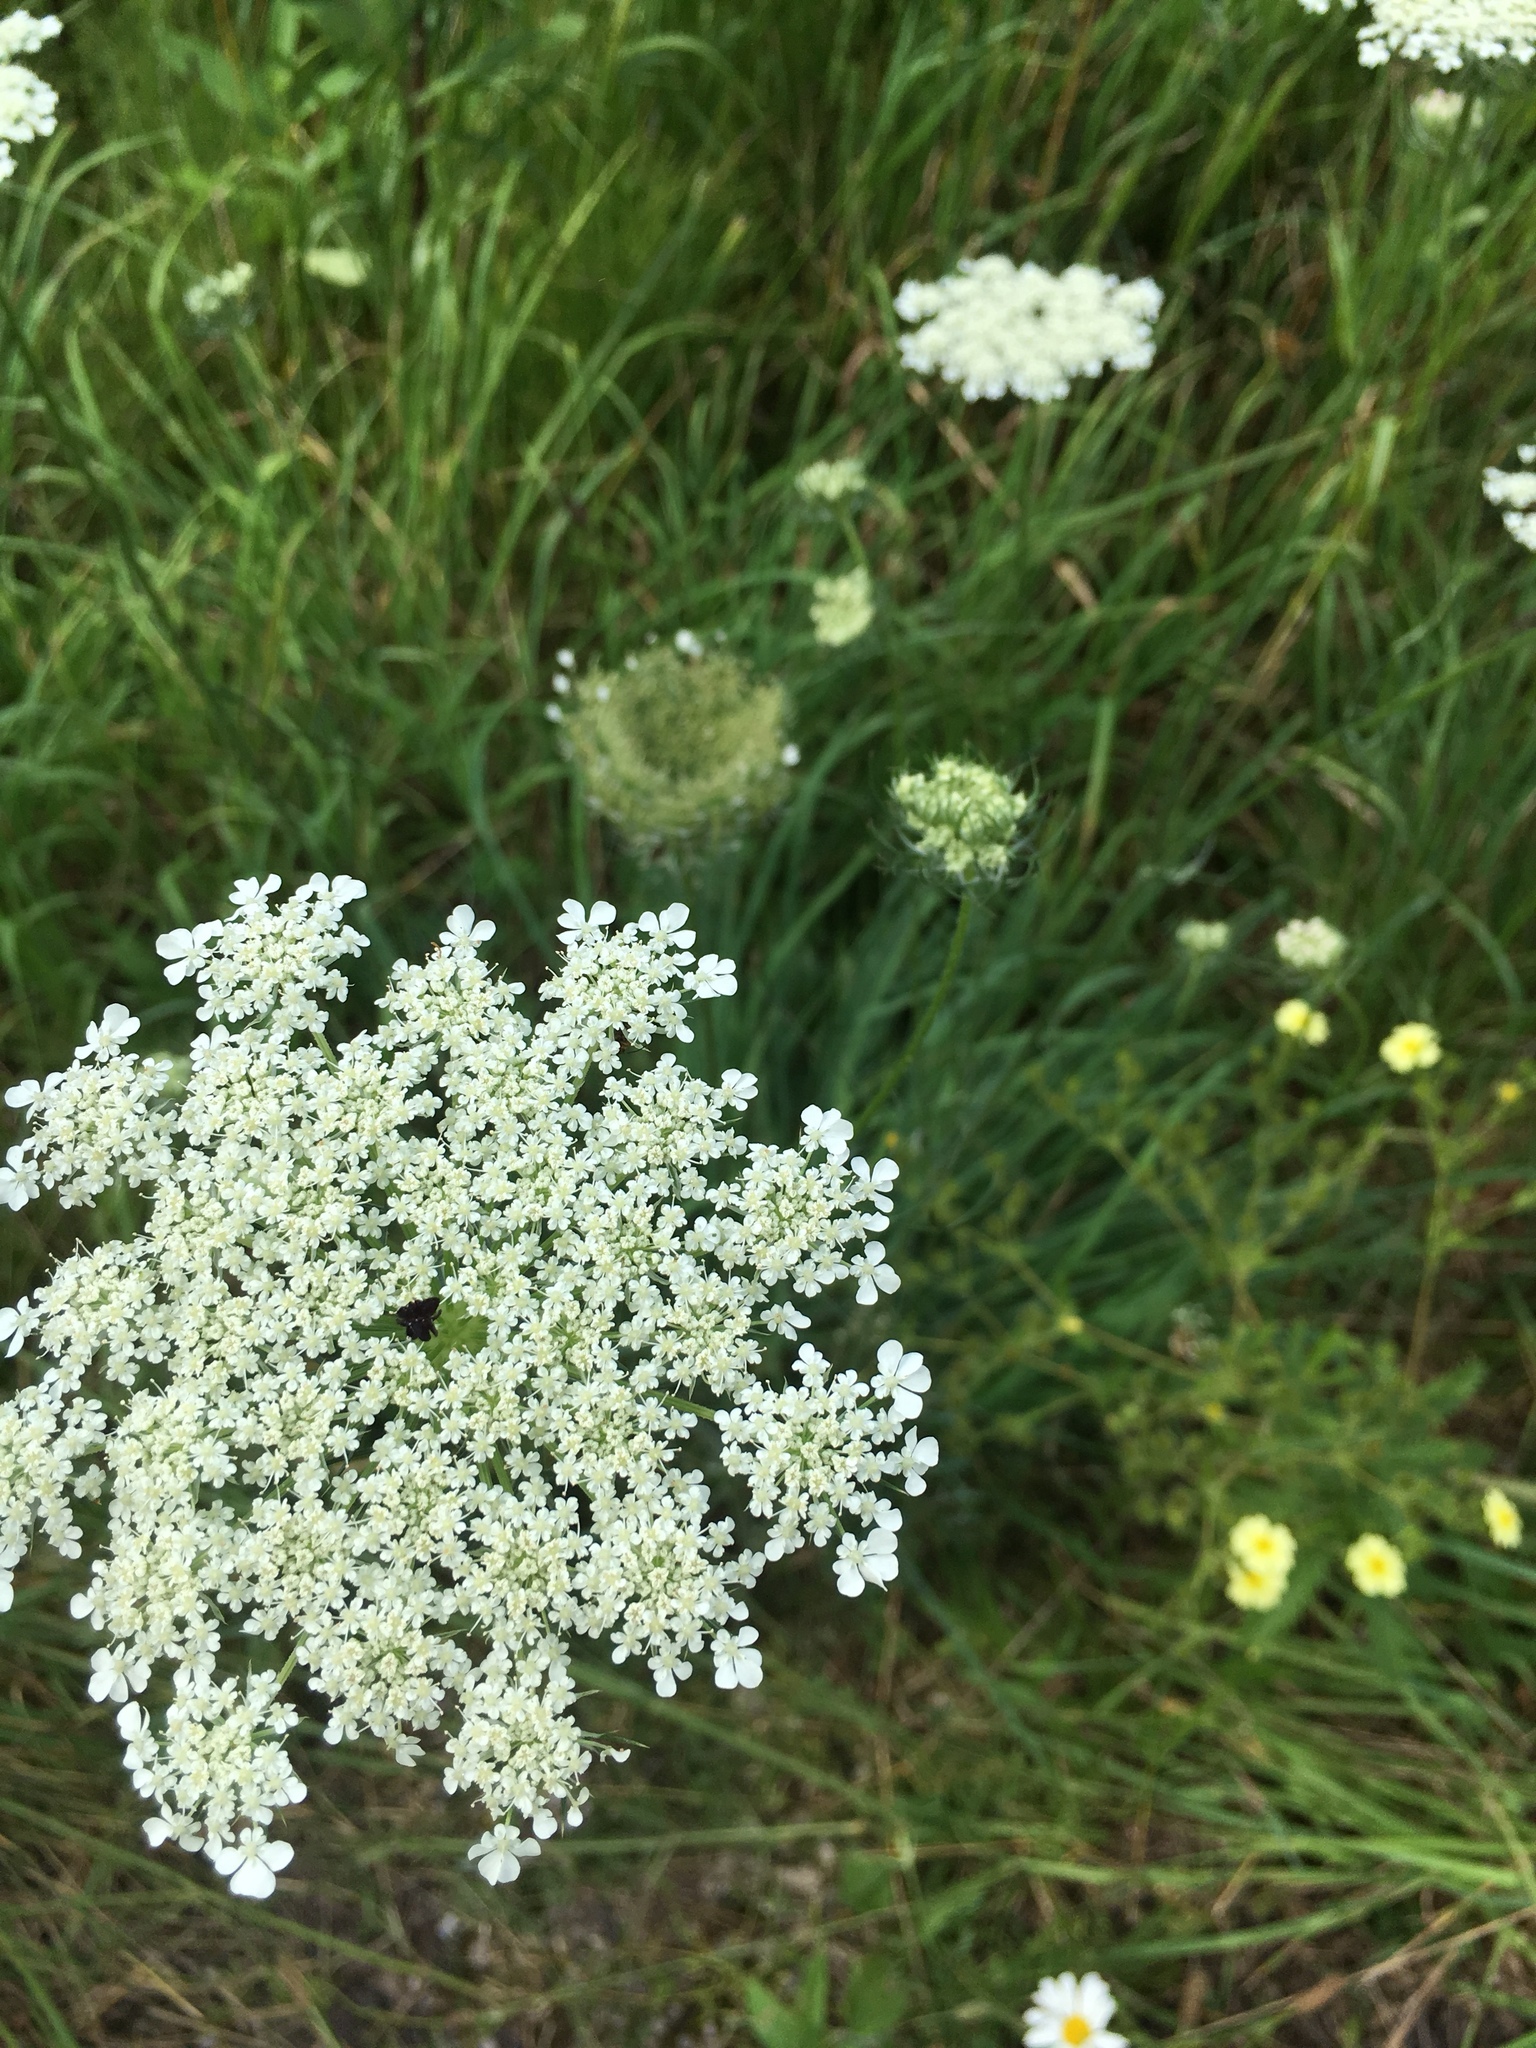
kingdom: Plantae
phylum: Tracheophyta
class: Magnoliopsida
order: Apiales
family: Apiaceae
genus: Daucus
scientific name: Daucus carota
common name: Wild carrot
